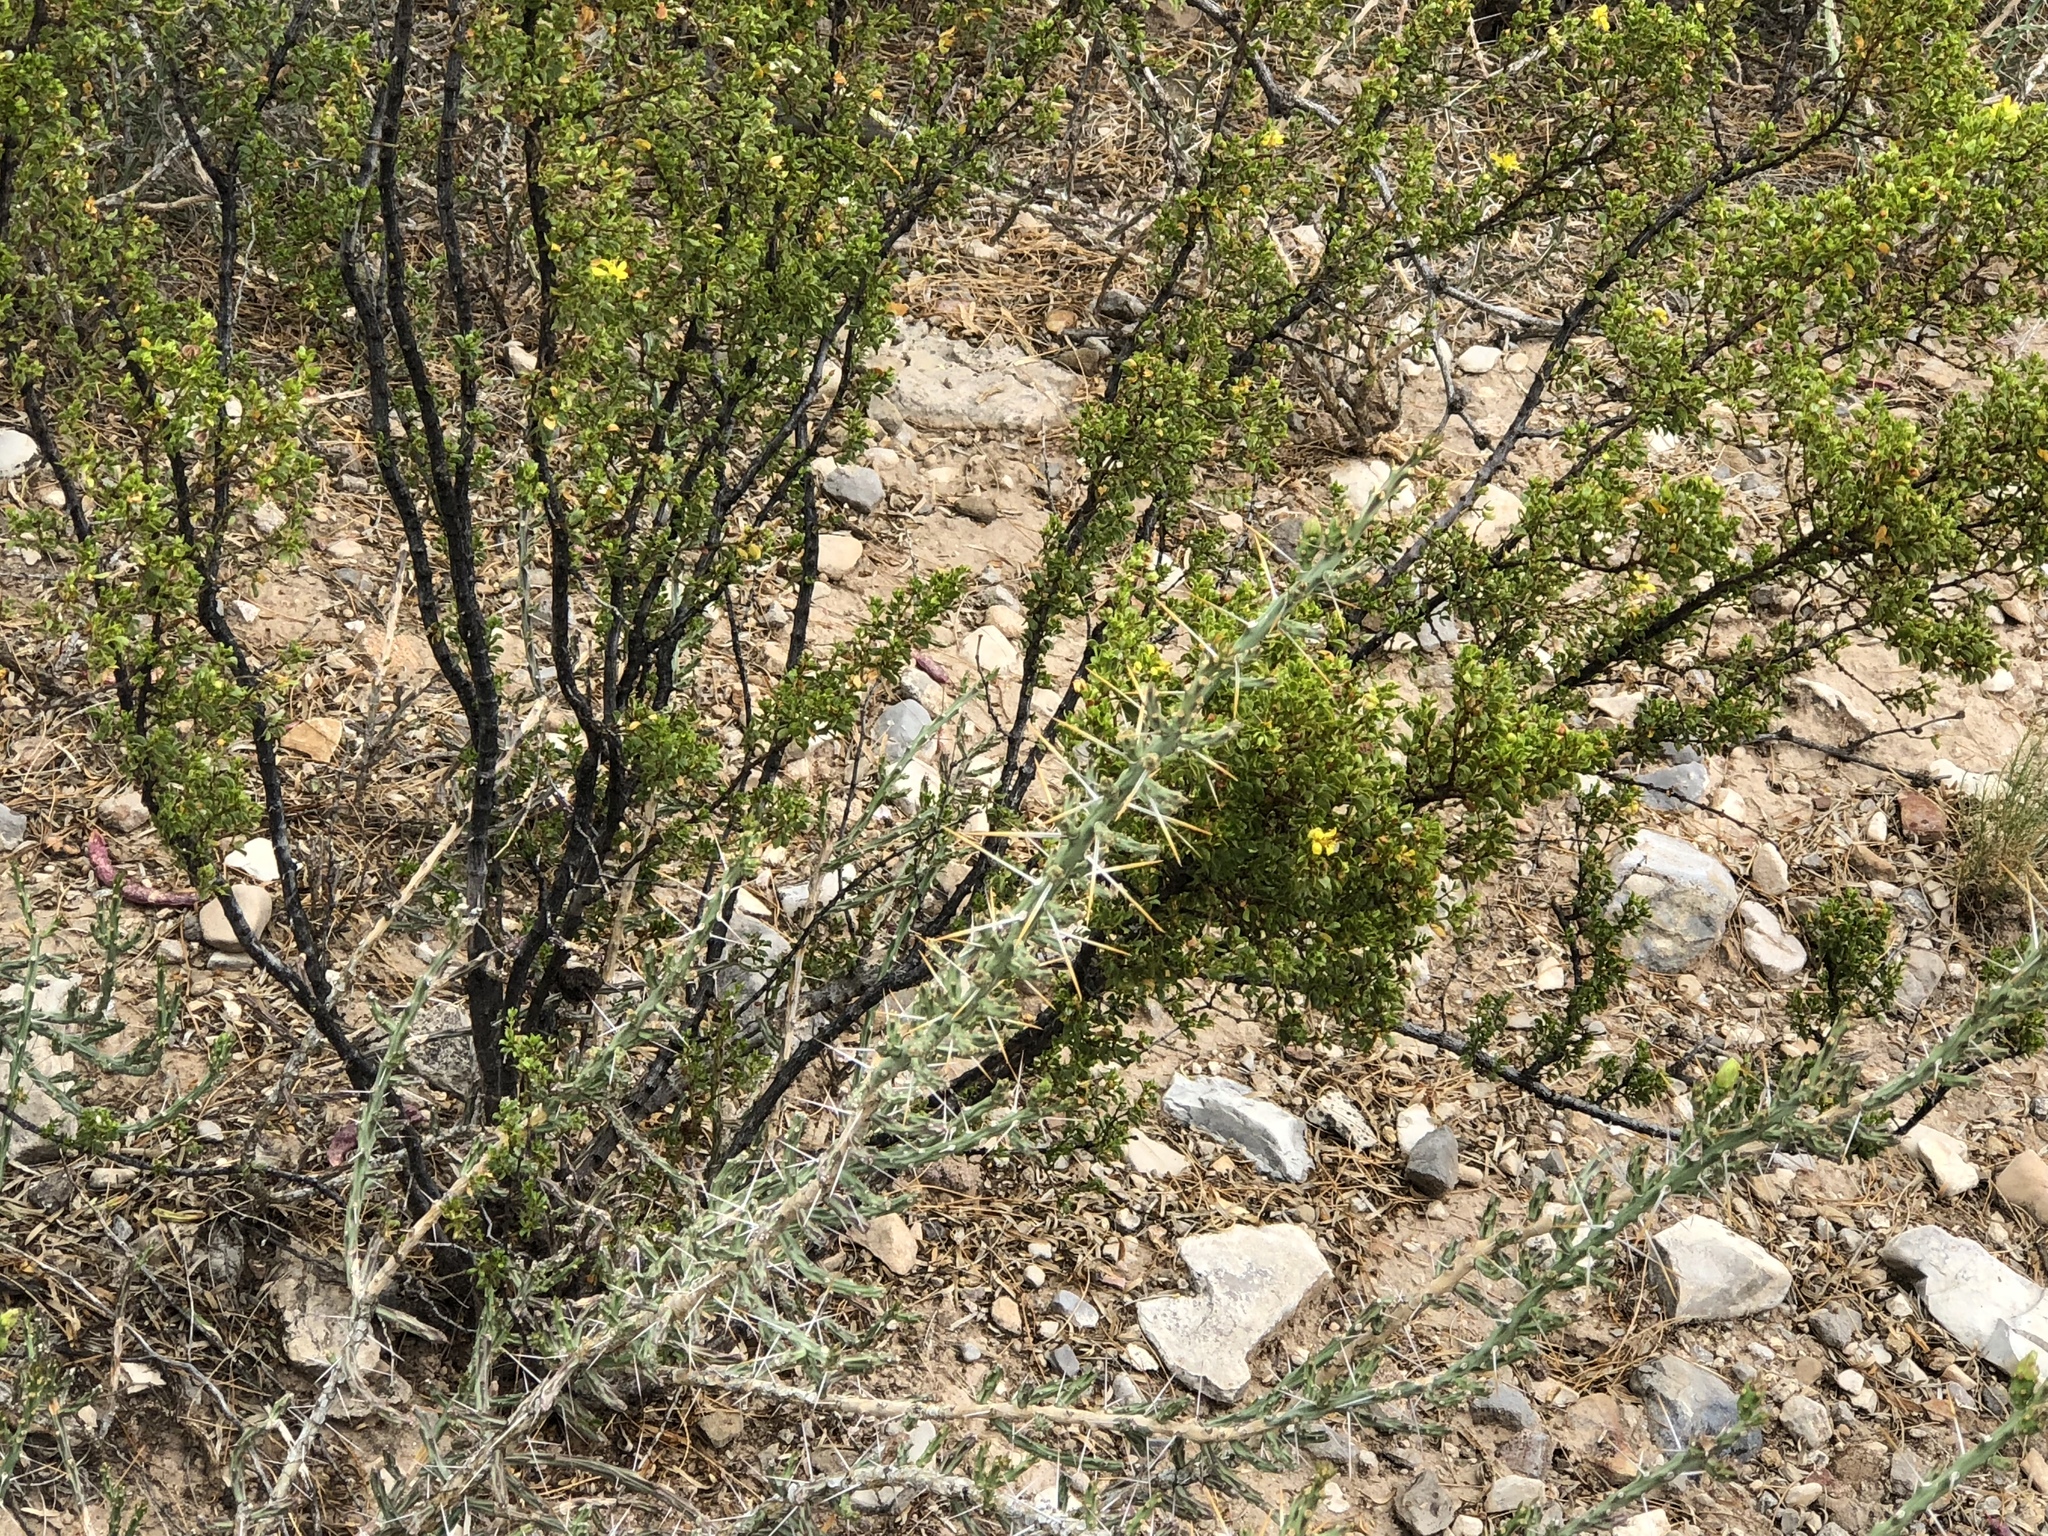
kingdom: Plantae
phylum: Tracheophyta
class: Magnoliopsida
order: Caryophyllales
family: Cactaceae
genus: Cylindropuntia
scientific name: Cylindropuntia leptocaulis
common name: Christmas cactus
